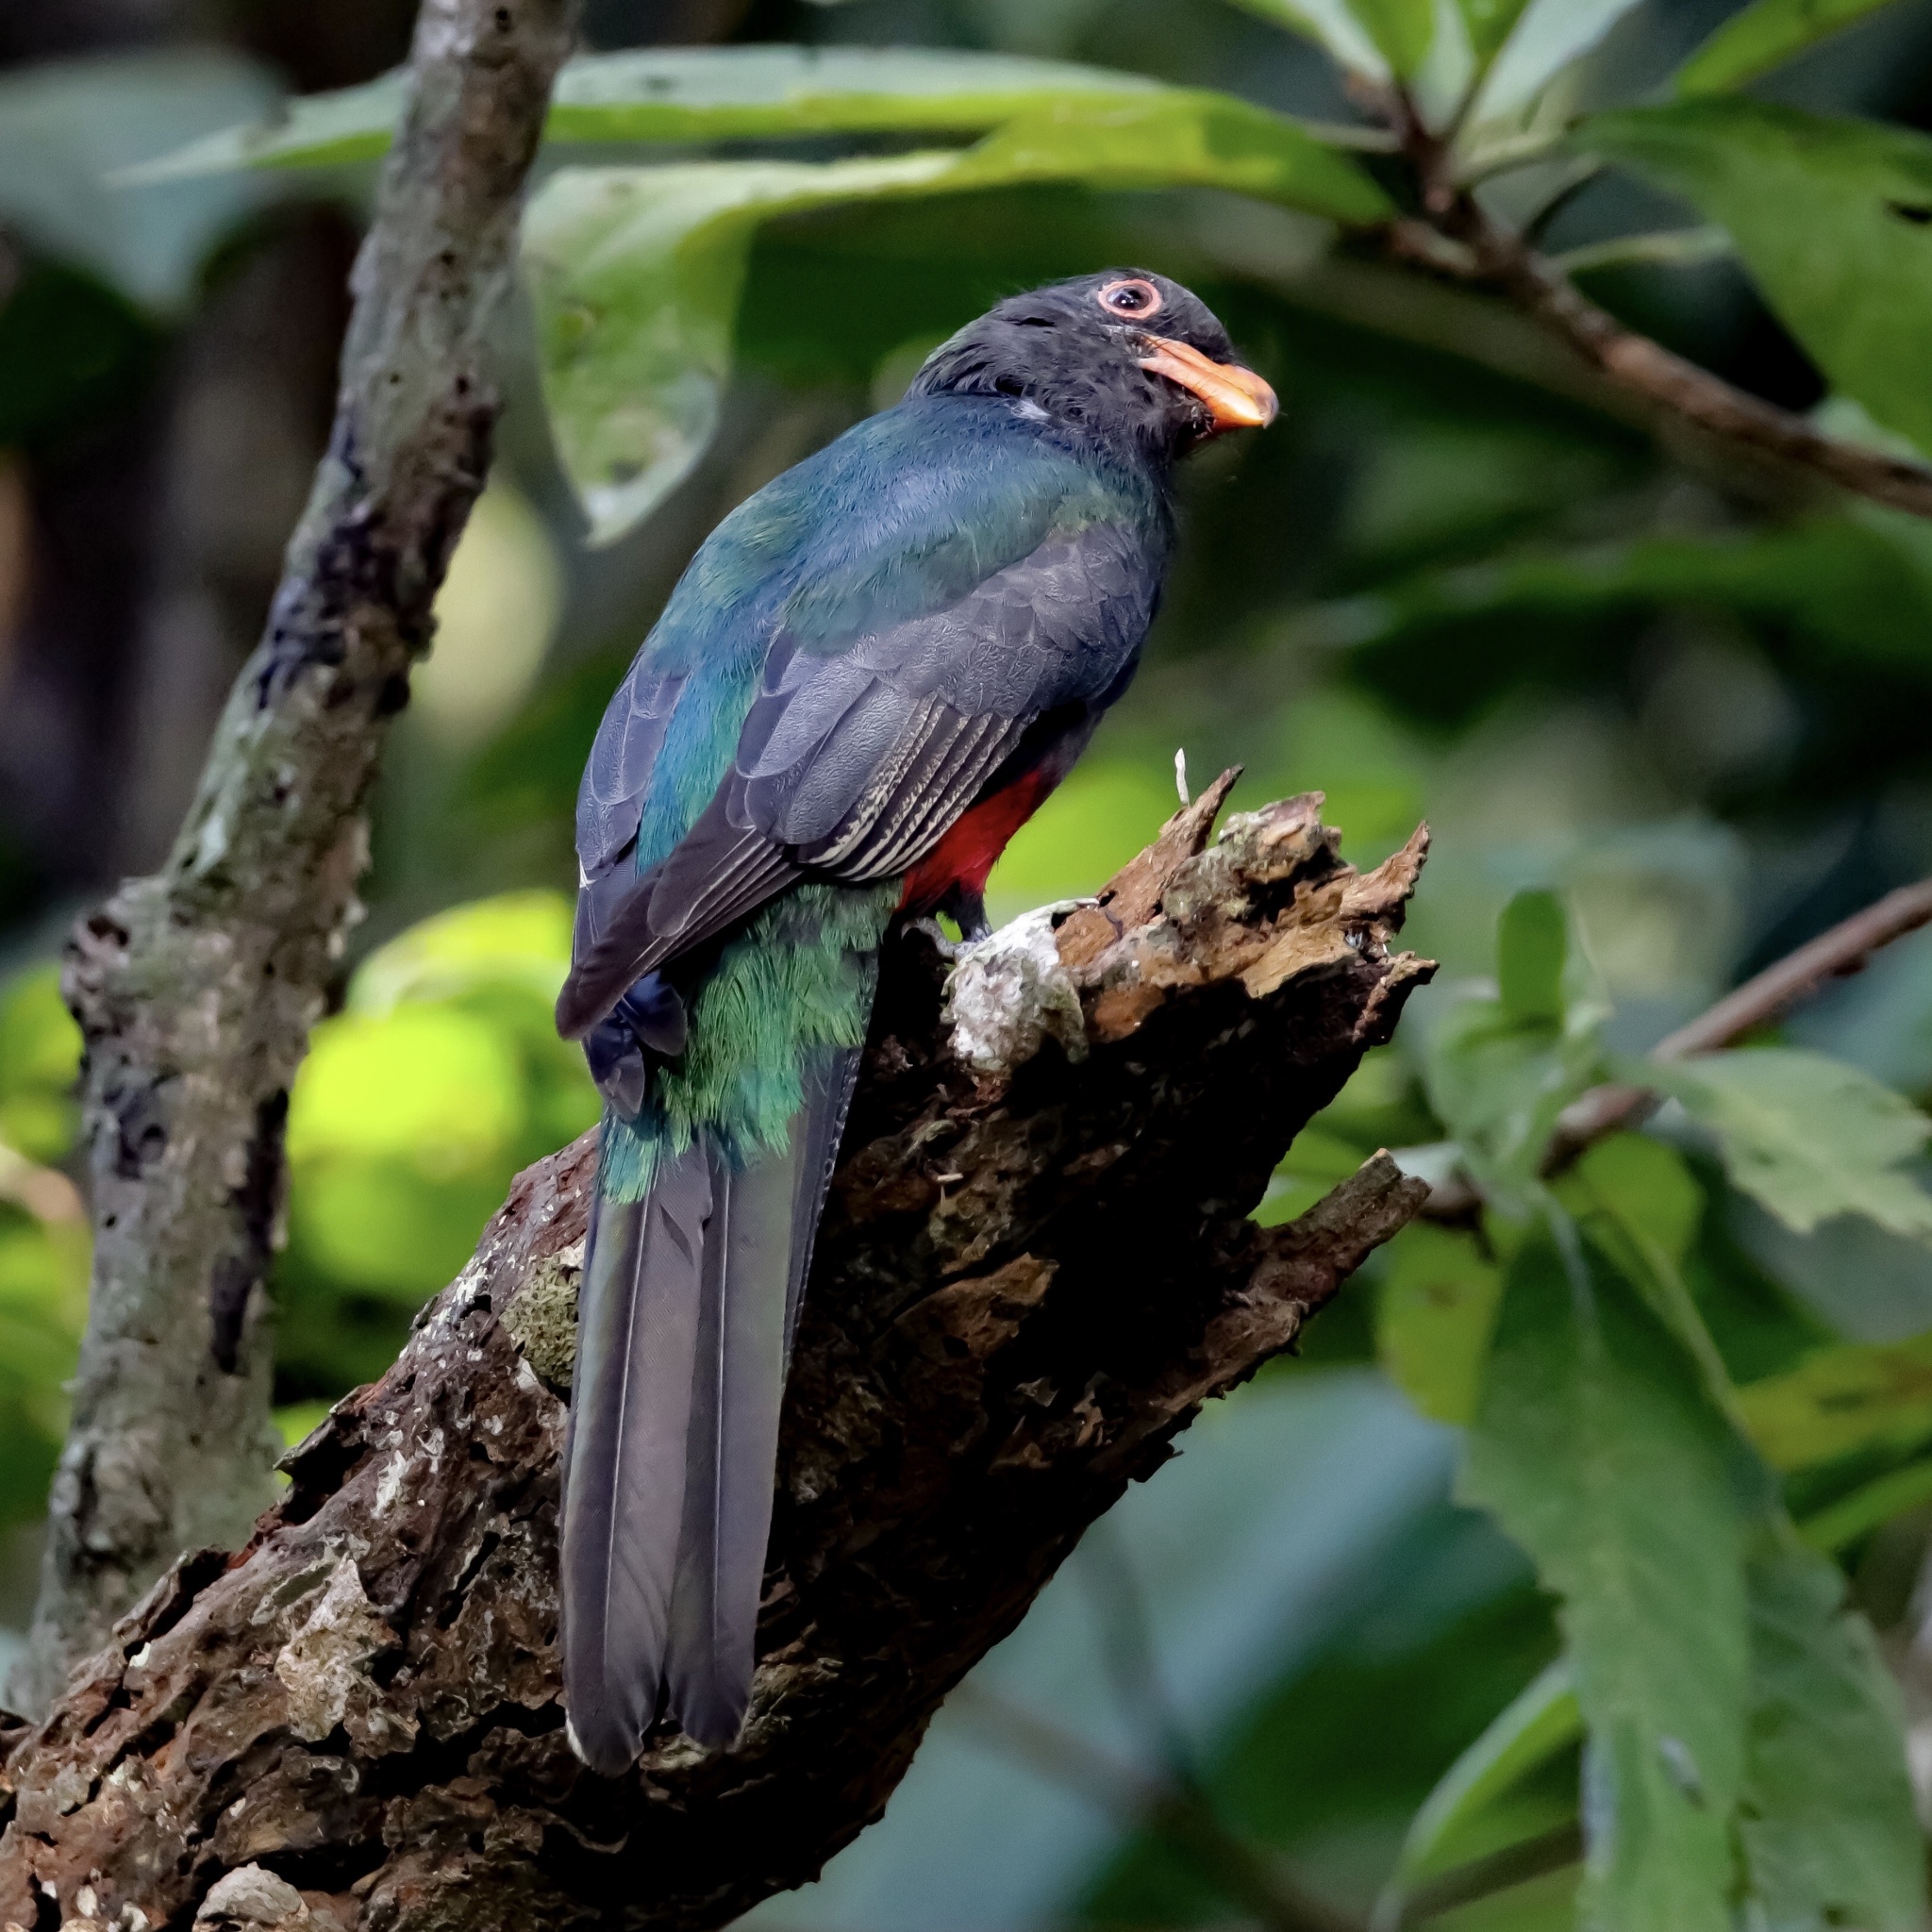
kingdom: Animalia
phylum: Chordata
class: Aves
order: Trogoniformes
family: Trogonidae
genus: Trogon
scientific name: Trogon massena
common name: Slaty-tailed trogon
